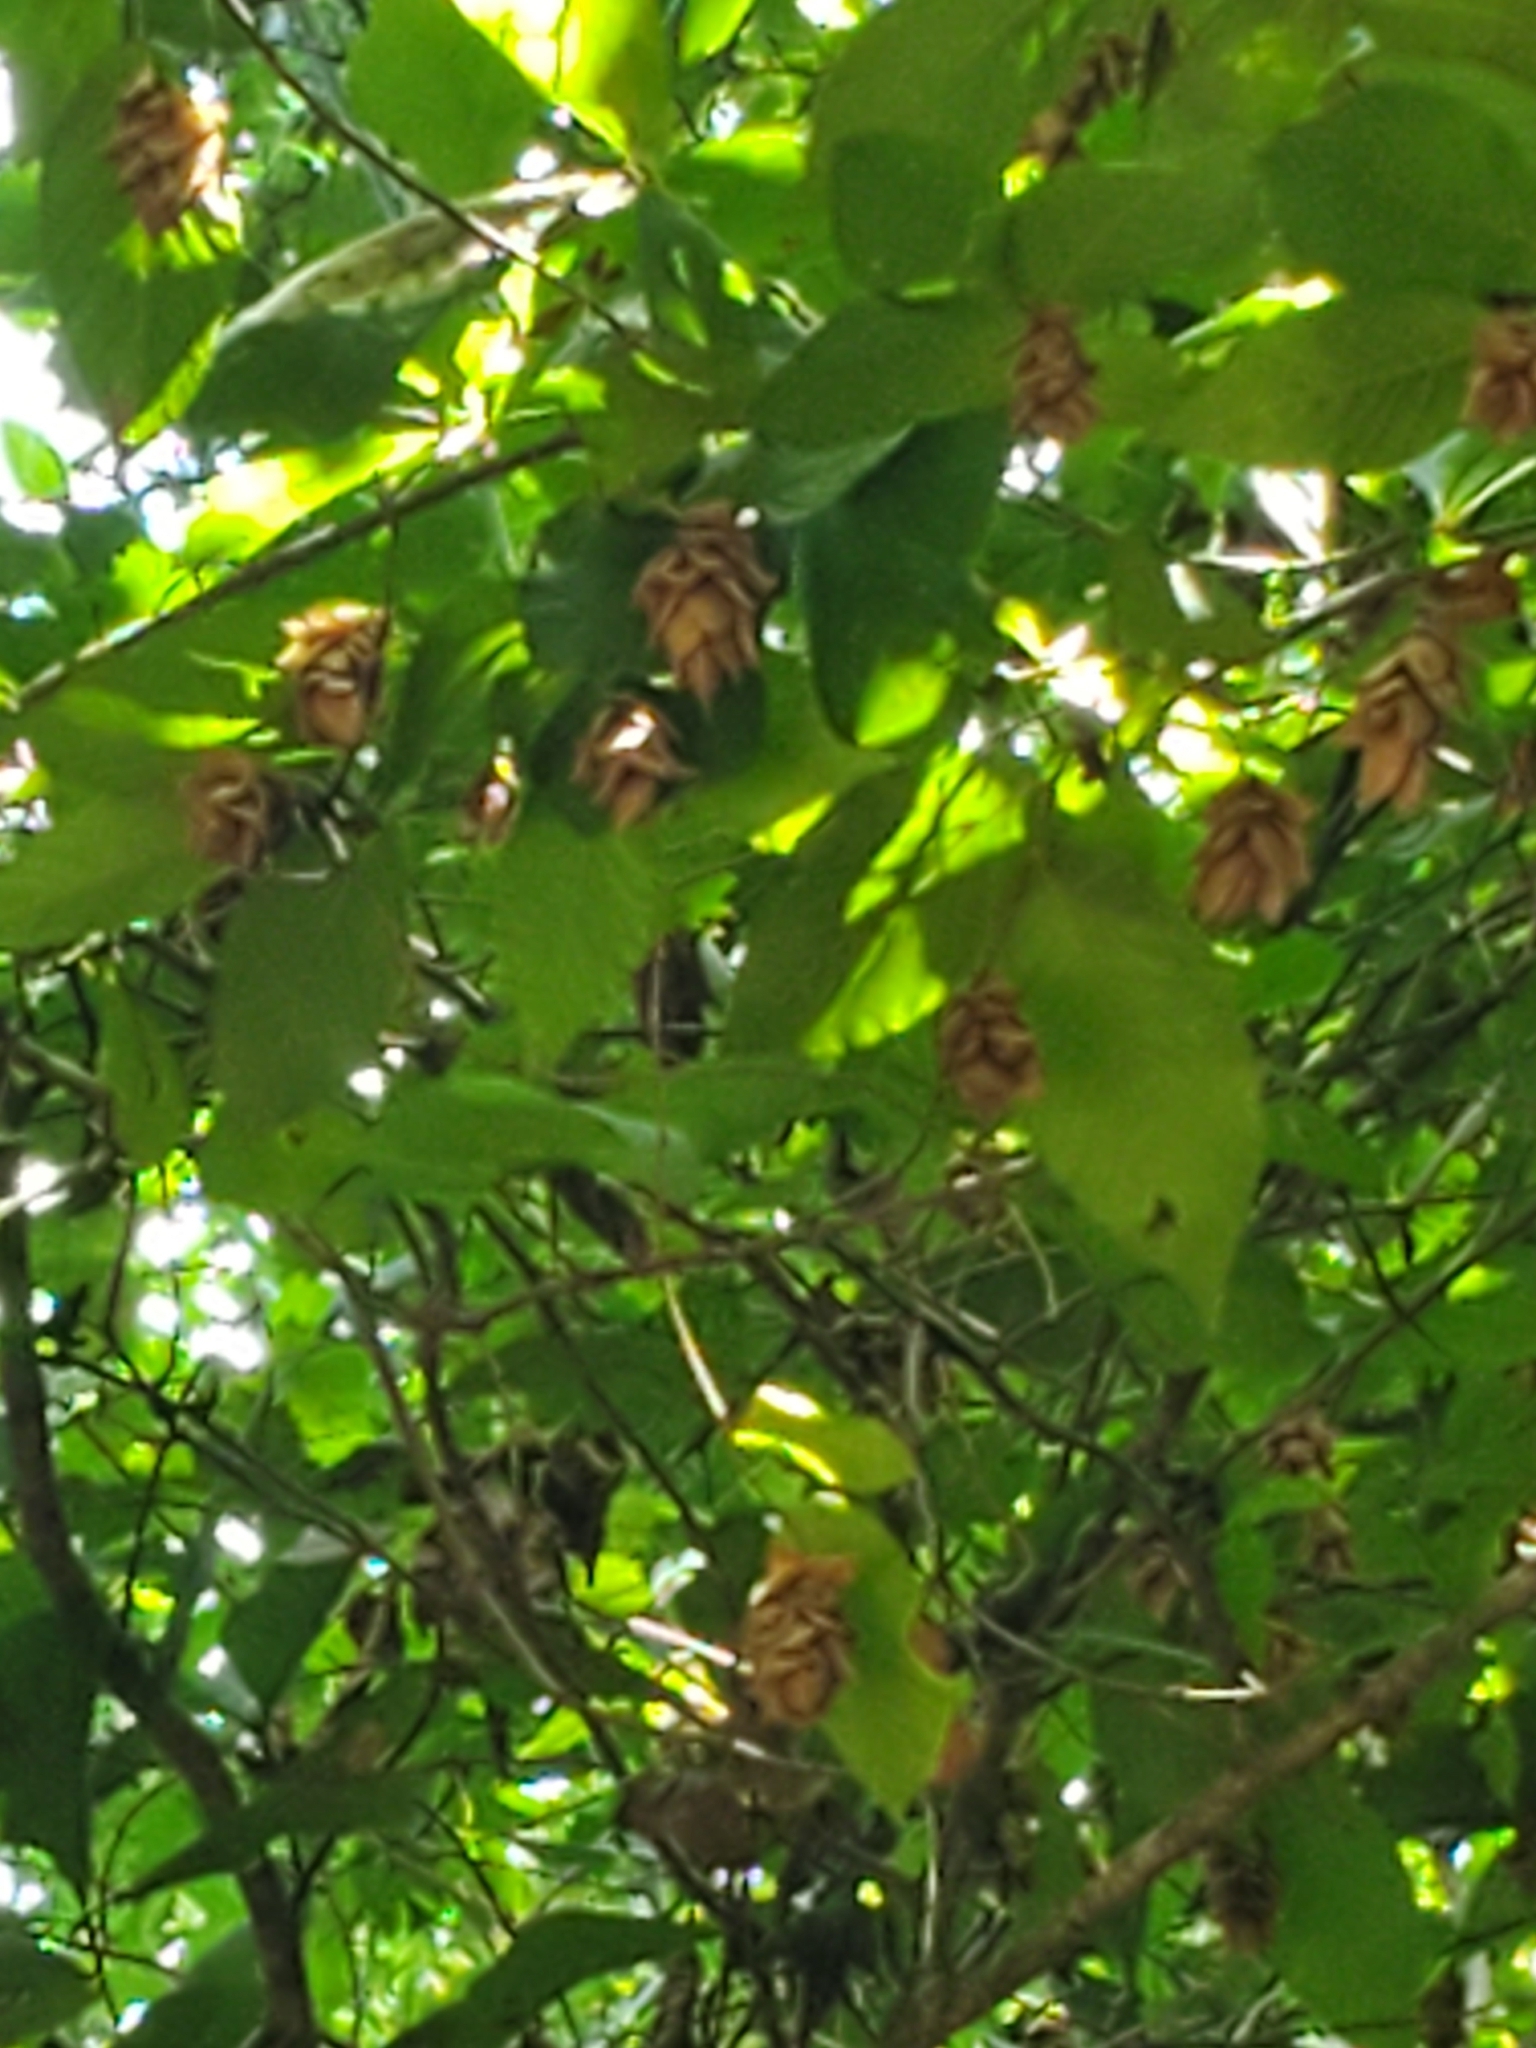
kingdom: Plantae
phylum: Tracheophyta
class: Magnoliopsida
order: Fagales
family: Betulaceae
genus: Ostrya
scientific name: Ostrya virginiana
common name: Ironwood
